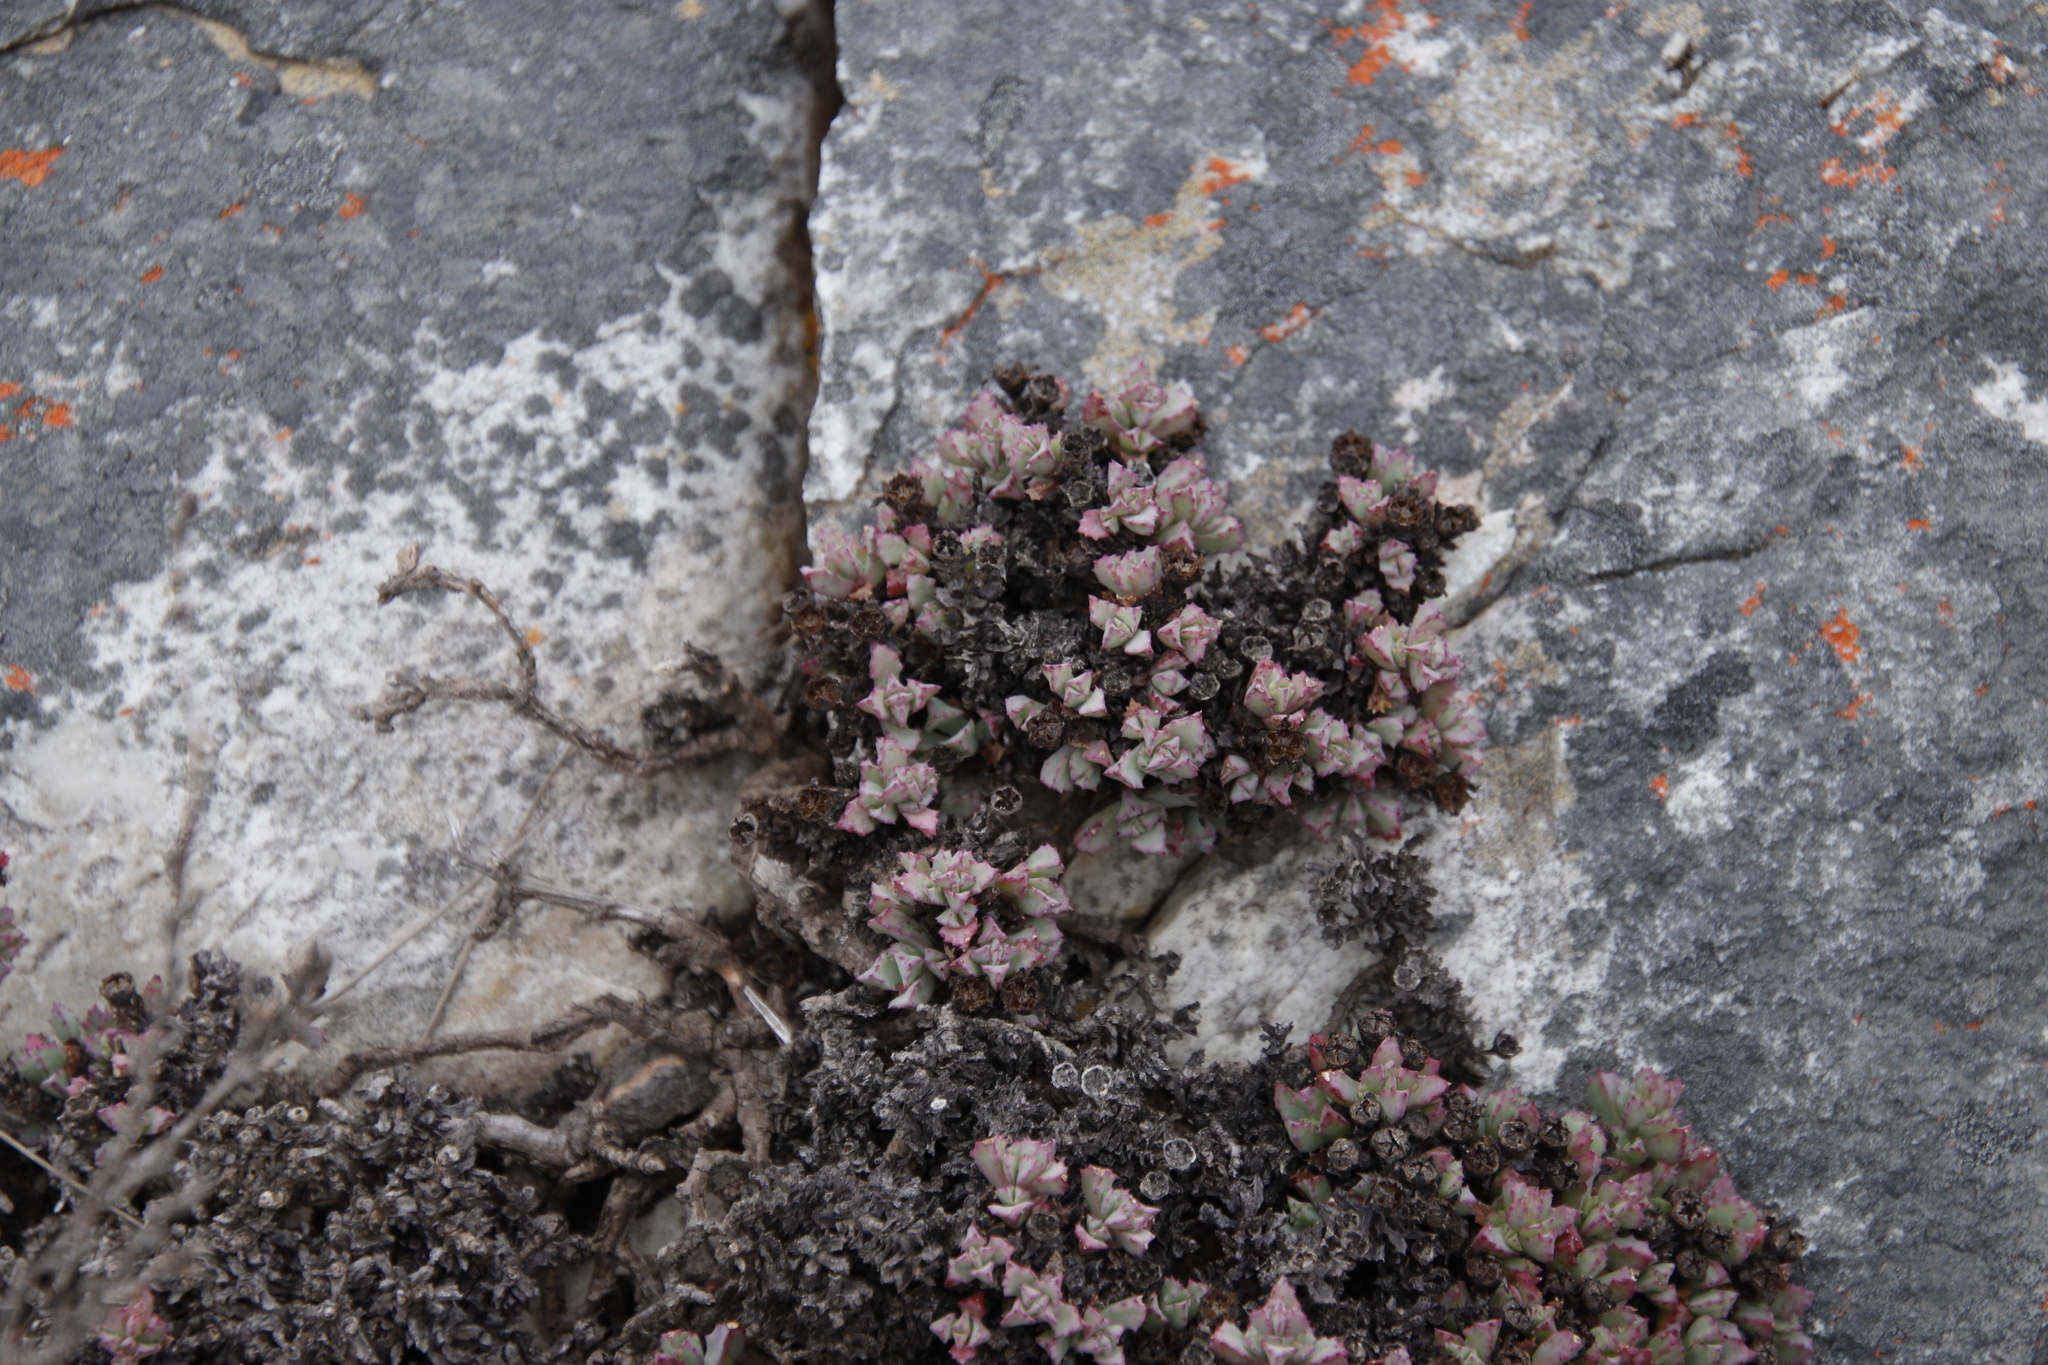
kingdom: Plantae
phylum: Tracheophyta
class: Magnoliopsida
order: Caryophyllales
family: Aizoaceae
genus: Oscularia
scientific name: Oscularia deltoides
